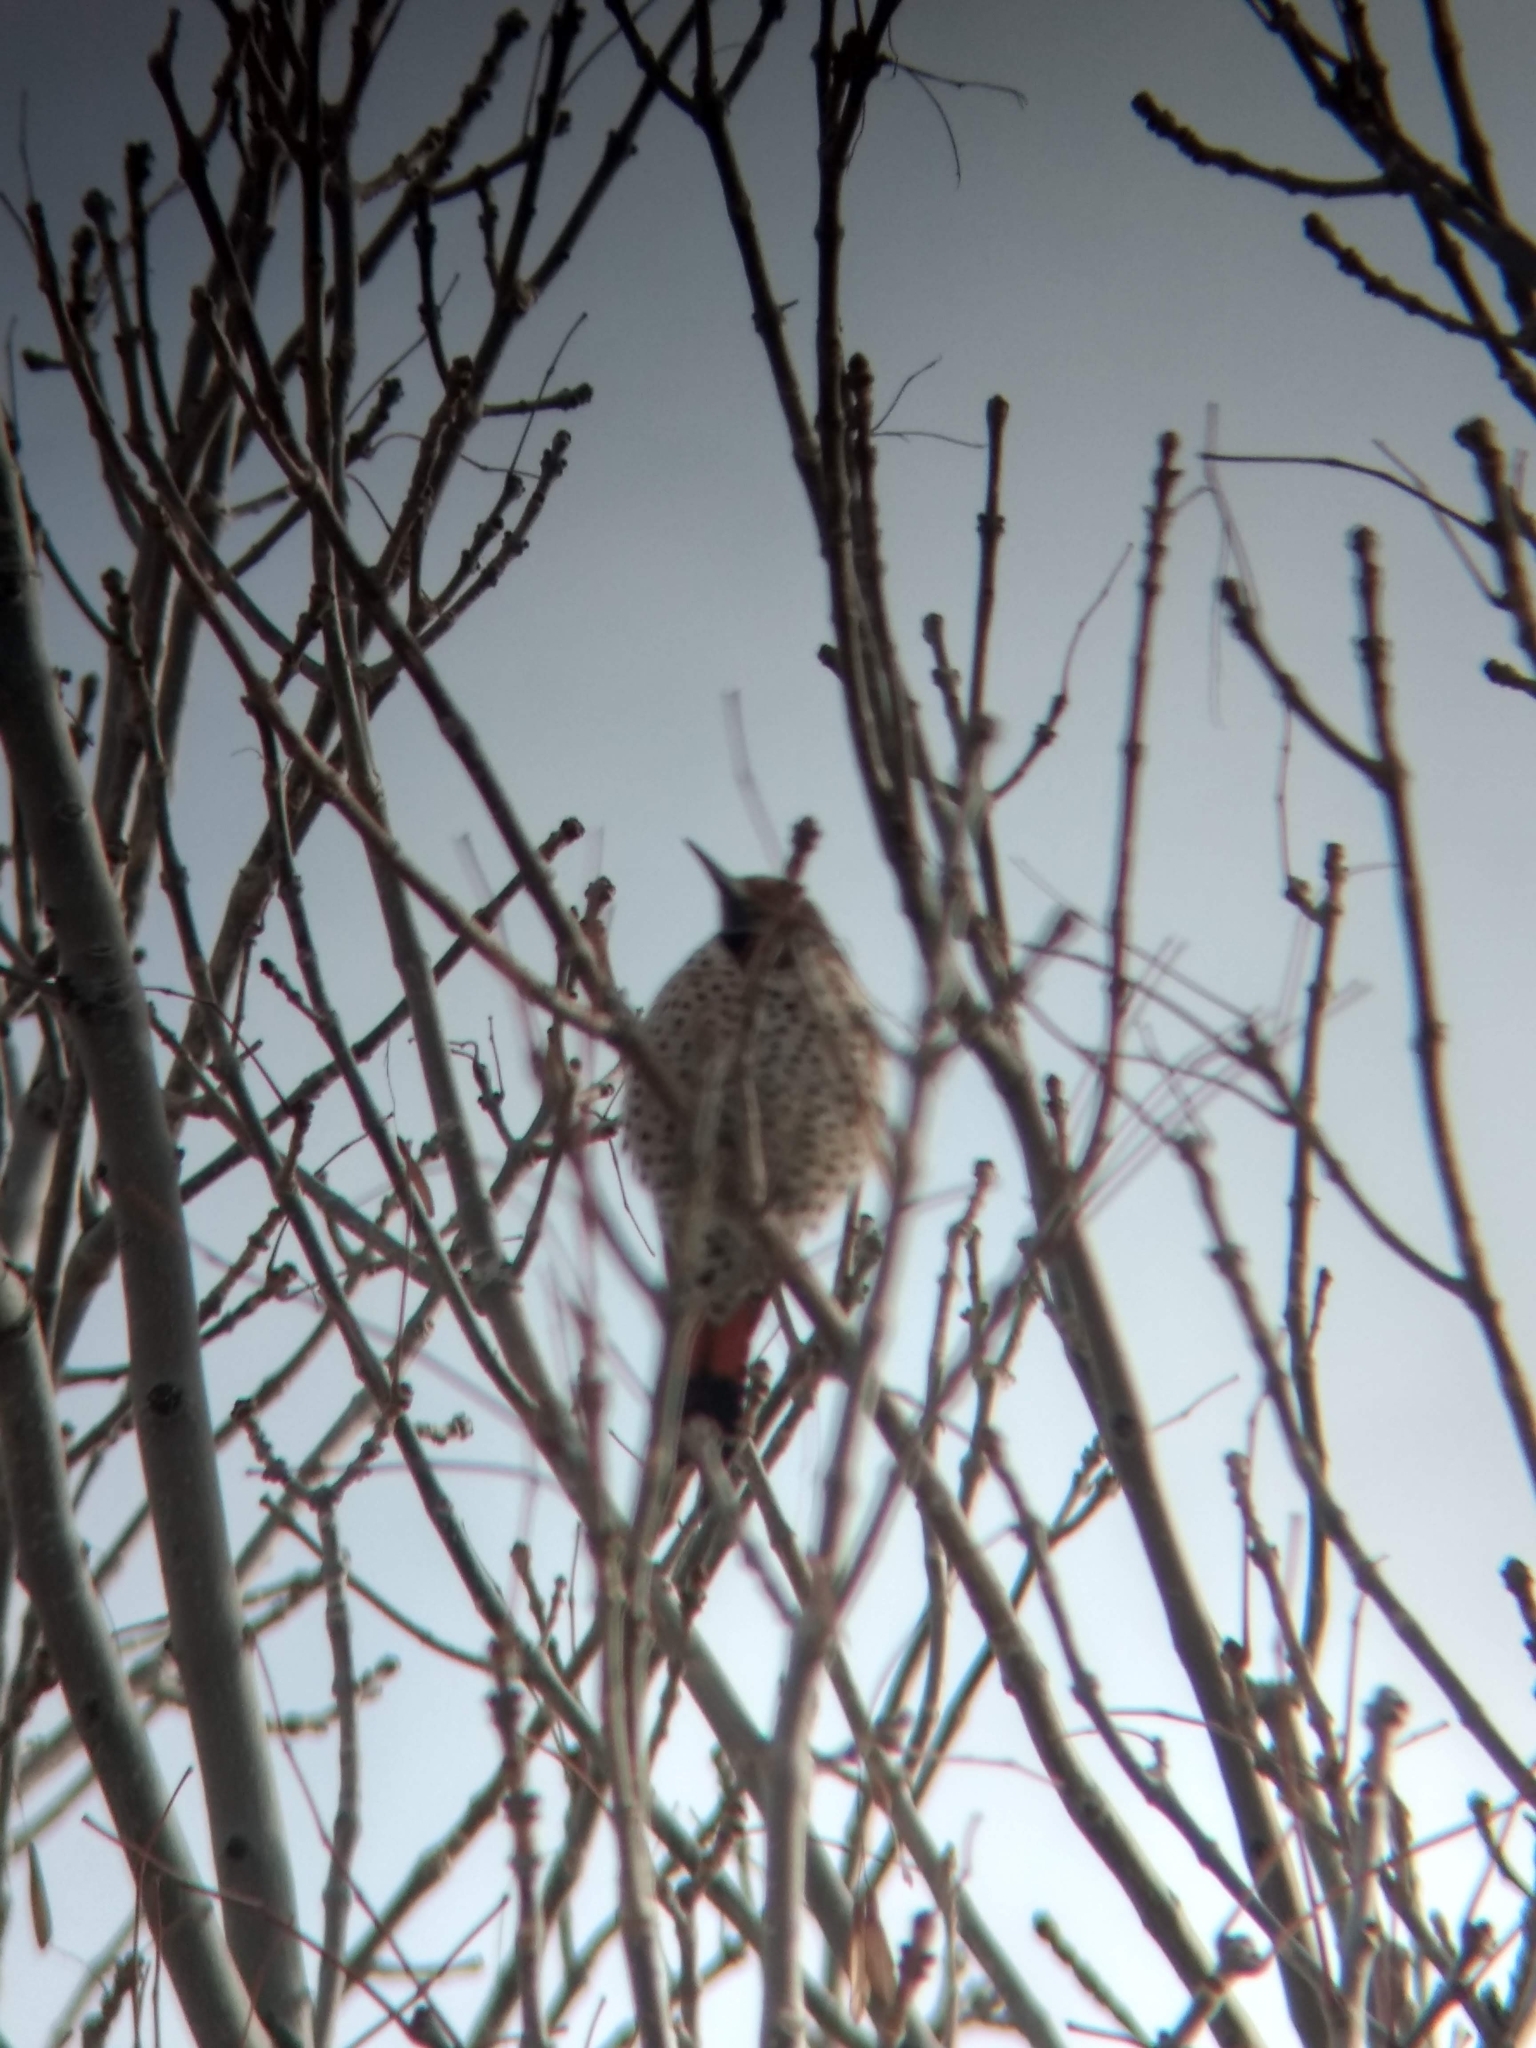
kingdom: Animalia
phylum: Chordata
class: Aves
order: Piciformes
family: Picidae
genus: Colaptes
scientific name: Colaptes auratus
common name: Northern flicker
